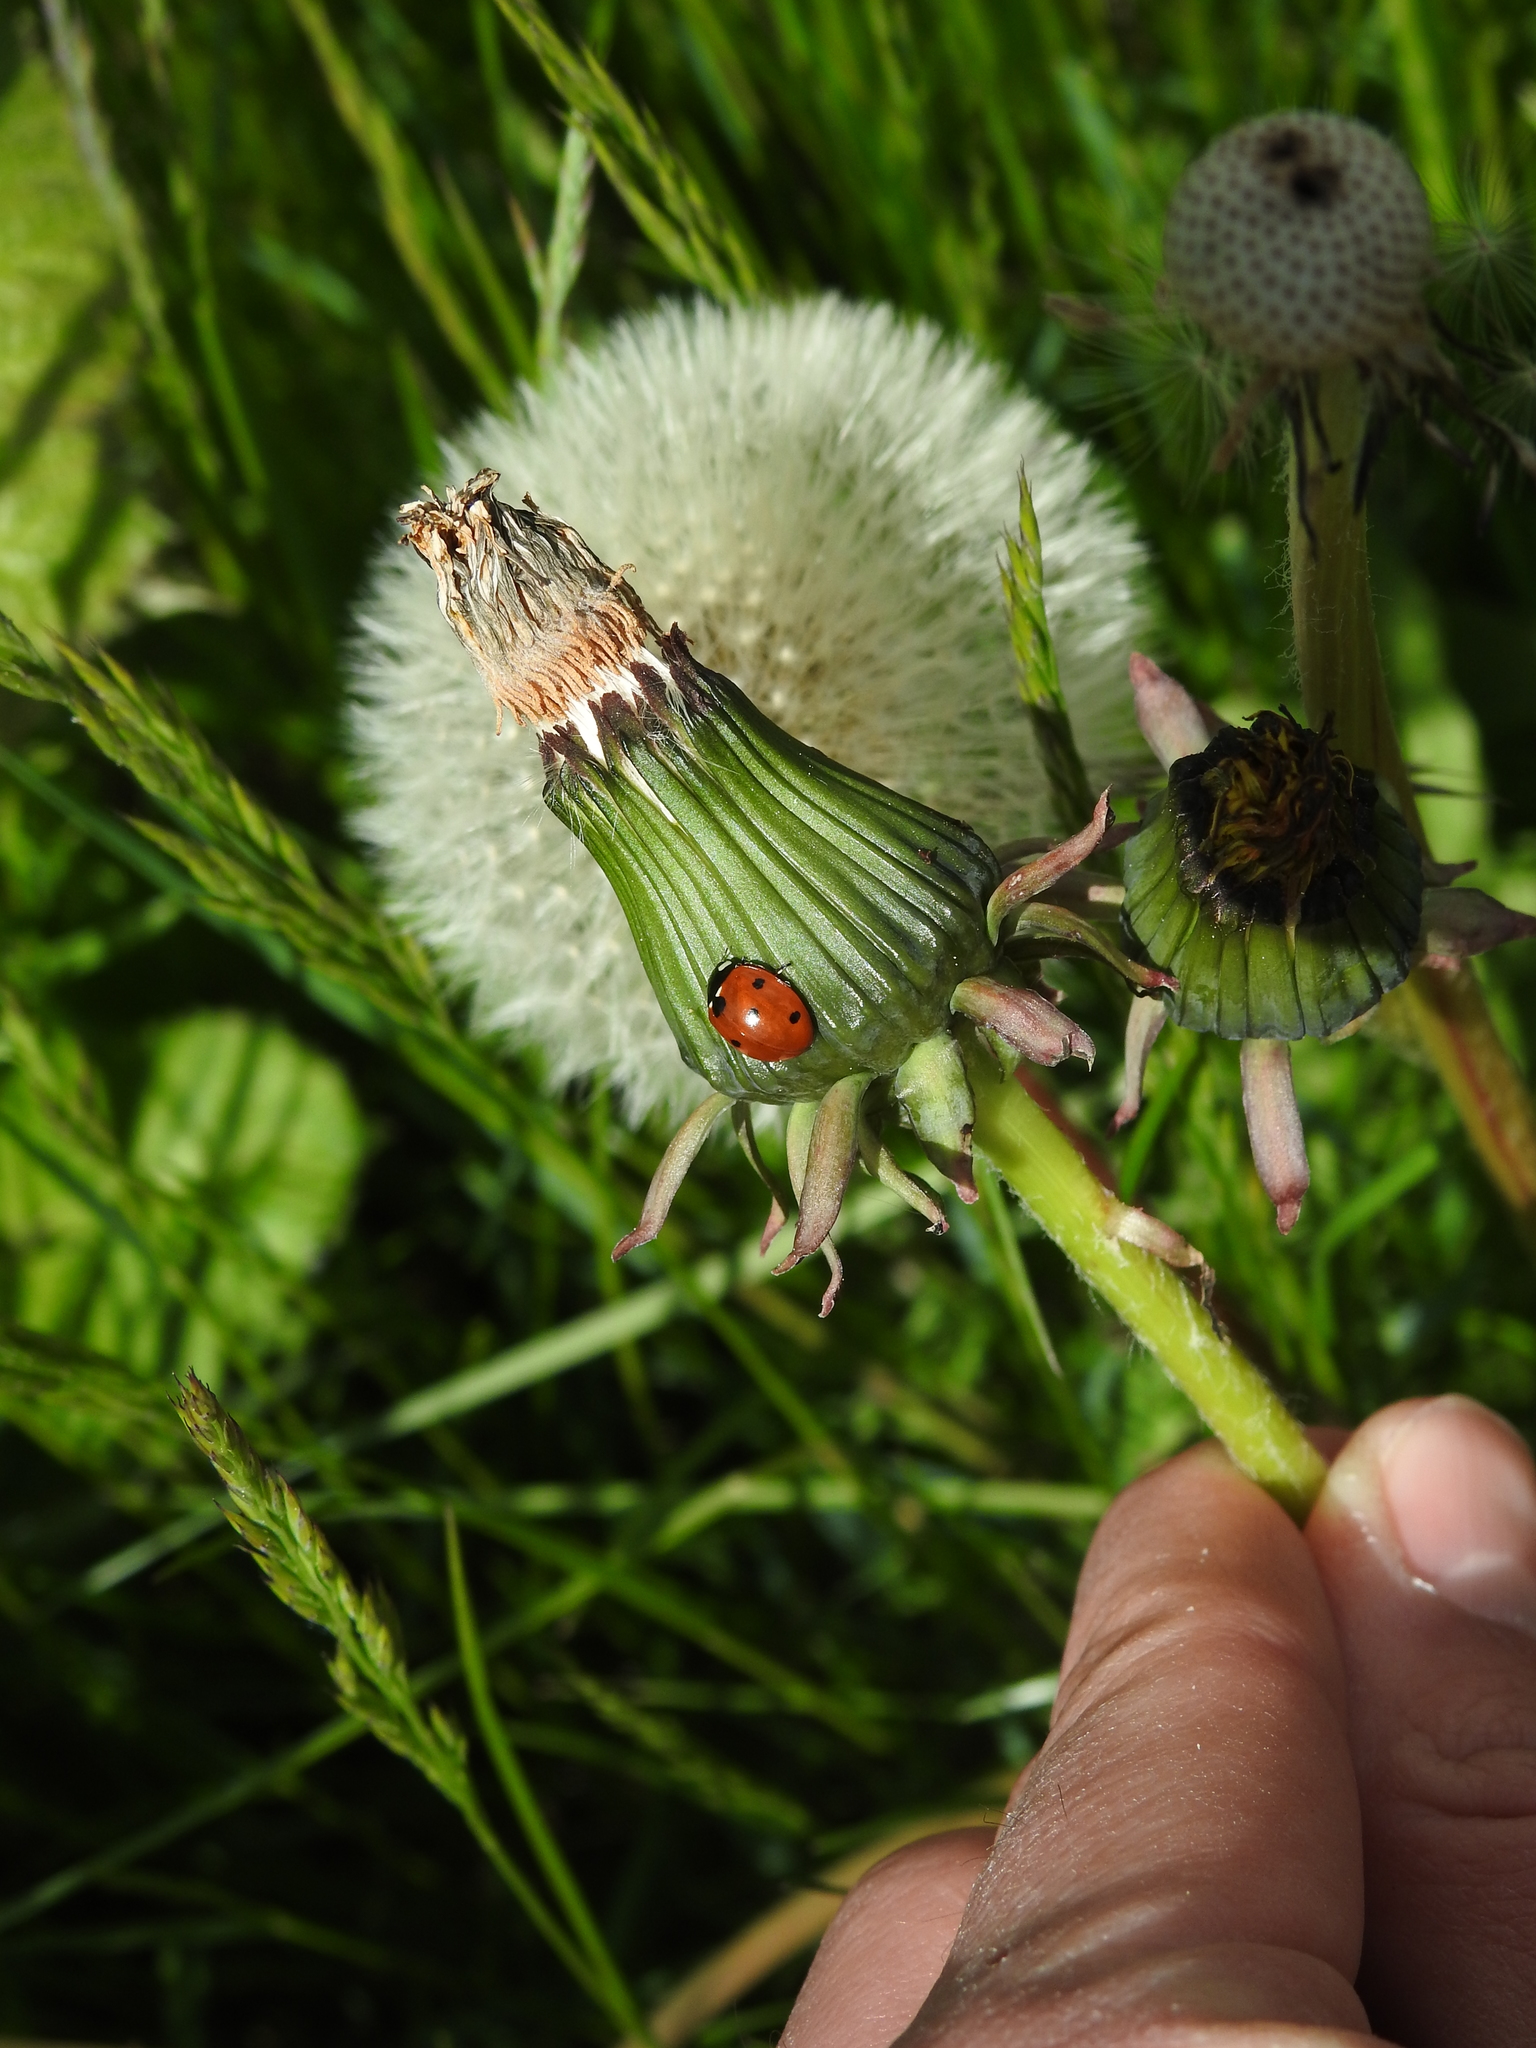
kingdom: Animalia
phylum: Arthropoda
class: Insecta
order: Coleoptera
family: Coccinellidae
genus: Coccinella
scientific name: Coccinella septempunctata
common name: Sevenspotted lady beetle
